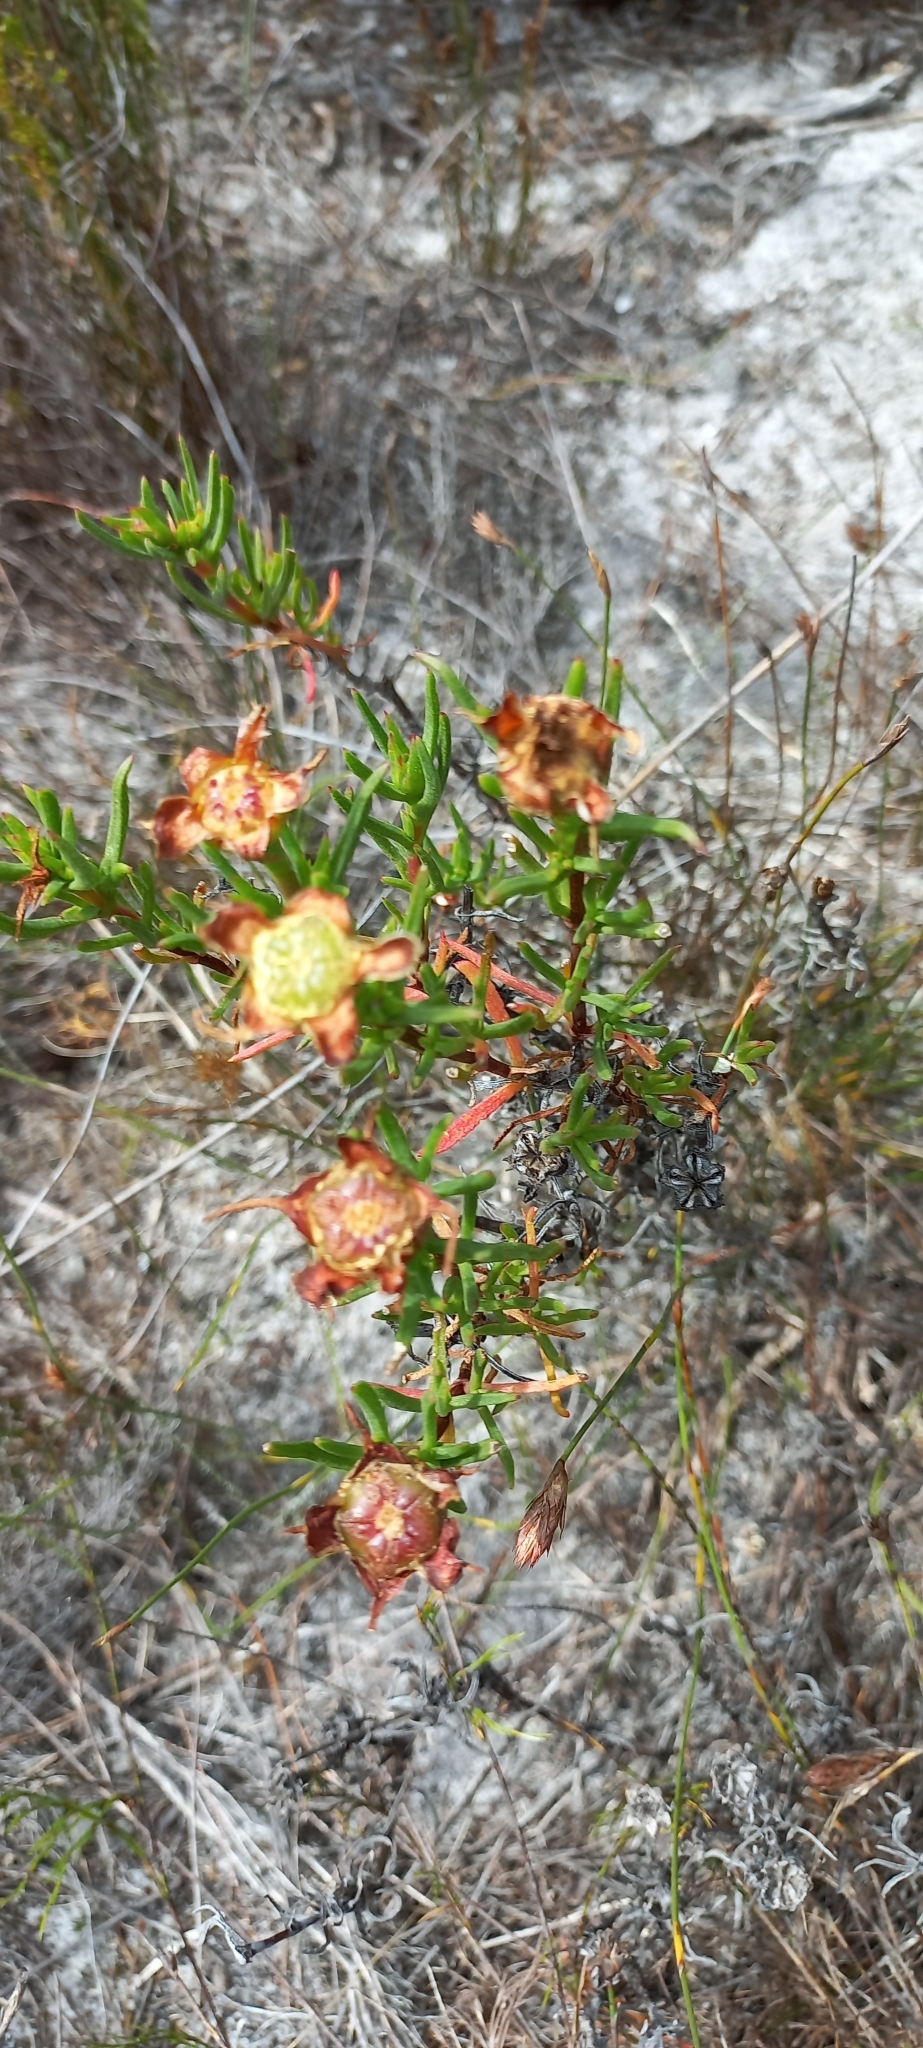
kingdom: Plantae
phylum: Tracheophyta
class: Magnoliopsida
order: Caryophyllales
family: Aizoaceae
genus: Lampranthus
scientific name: Lampranthus bicolor
